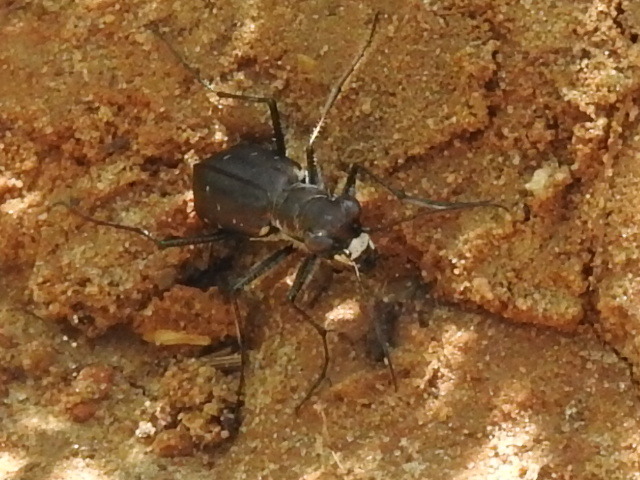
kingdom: Animalia
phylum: Arthropoda
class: Insecta
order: Coleoptera
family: Carabidae
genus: Cicindela
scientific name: Cicindela punctulata
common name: Punctured tiger beetle
